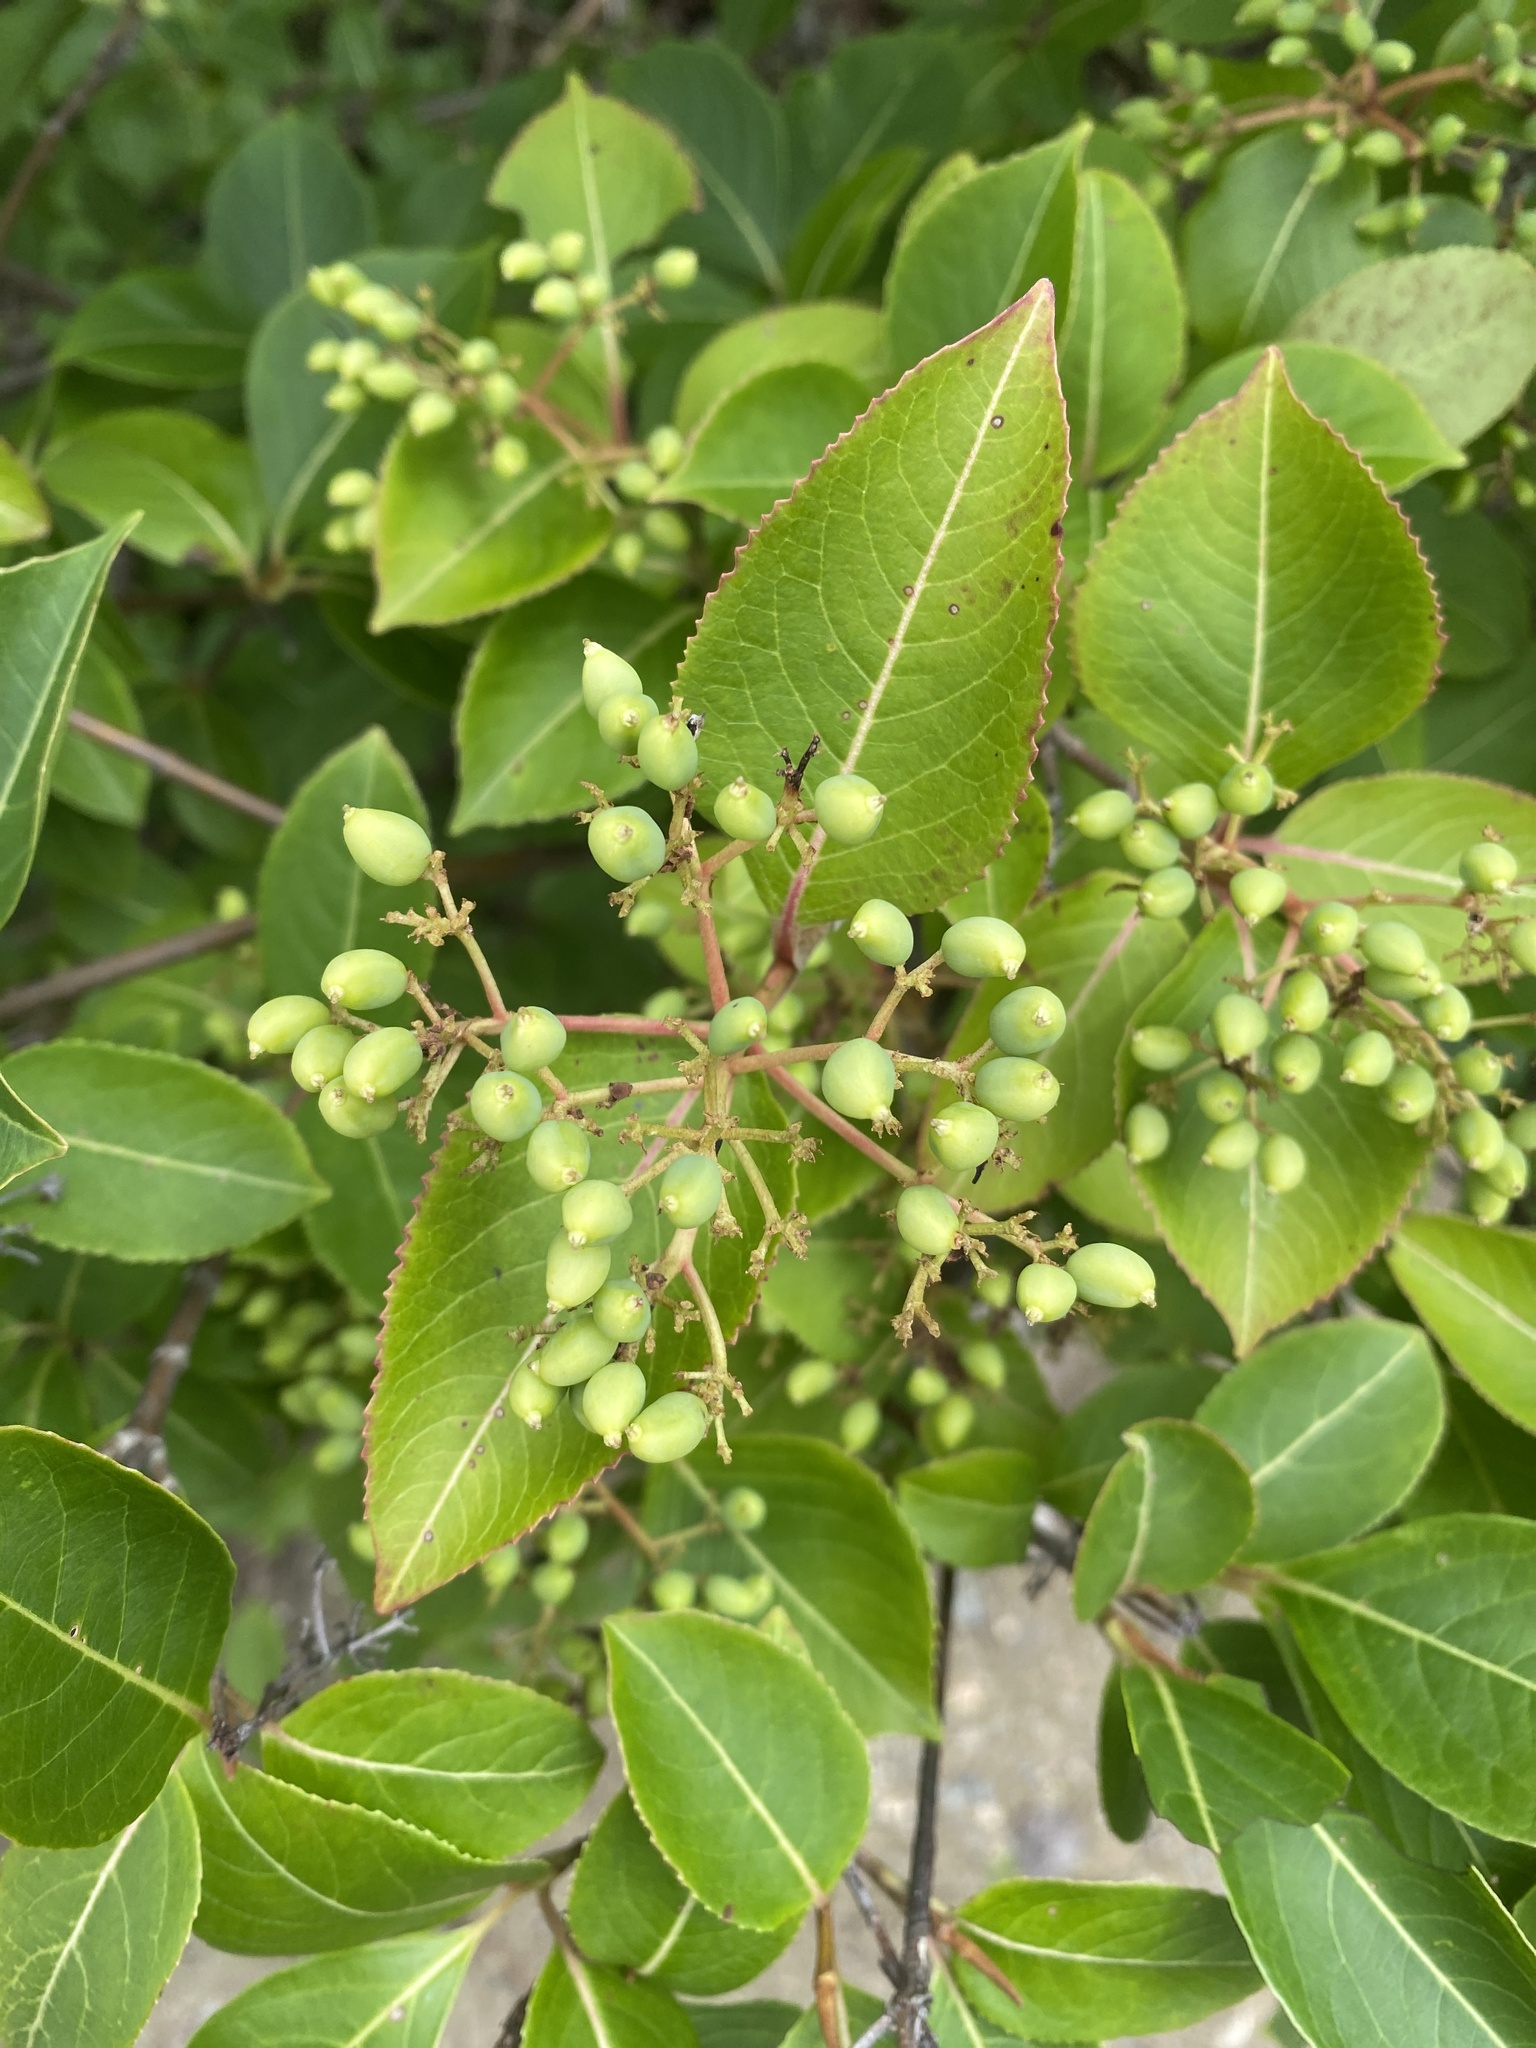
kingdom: Plantae
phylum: Tracheophyta
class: Magnoliopsida
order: Dipsacales
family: Viburnaceae
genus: Viburnum
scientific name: Viburnum cassinoides
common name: Swamp haw
